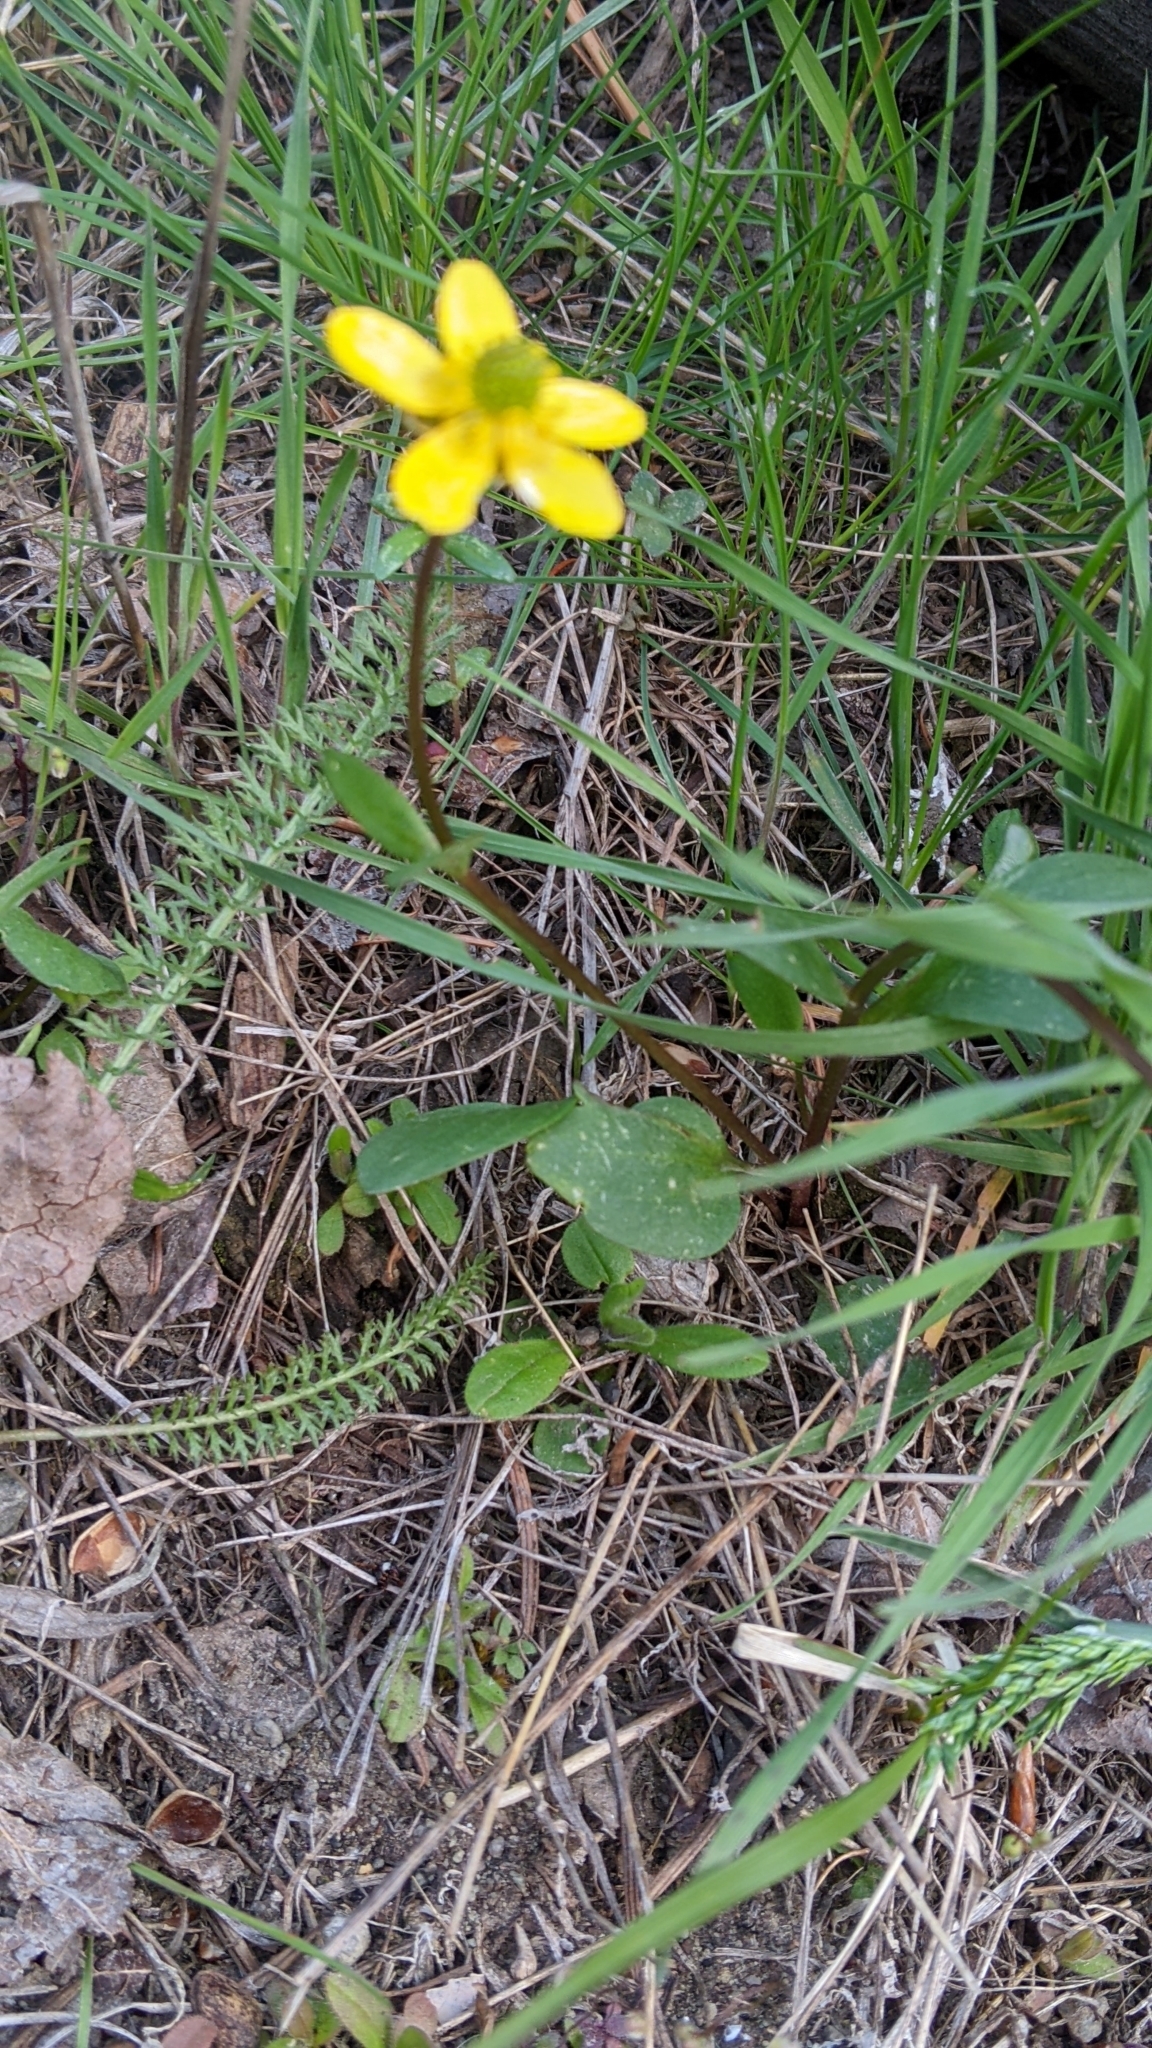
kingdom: Plantae
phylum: Tracheophyta
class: Magnoliopsida
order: Ranunculales
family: Ranunculaceae
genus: Ranunculus
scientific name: Ranunculus glaberrimus
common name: Sagebrush buttercup
